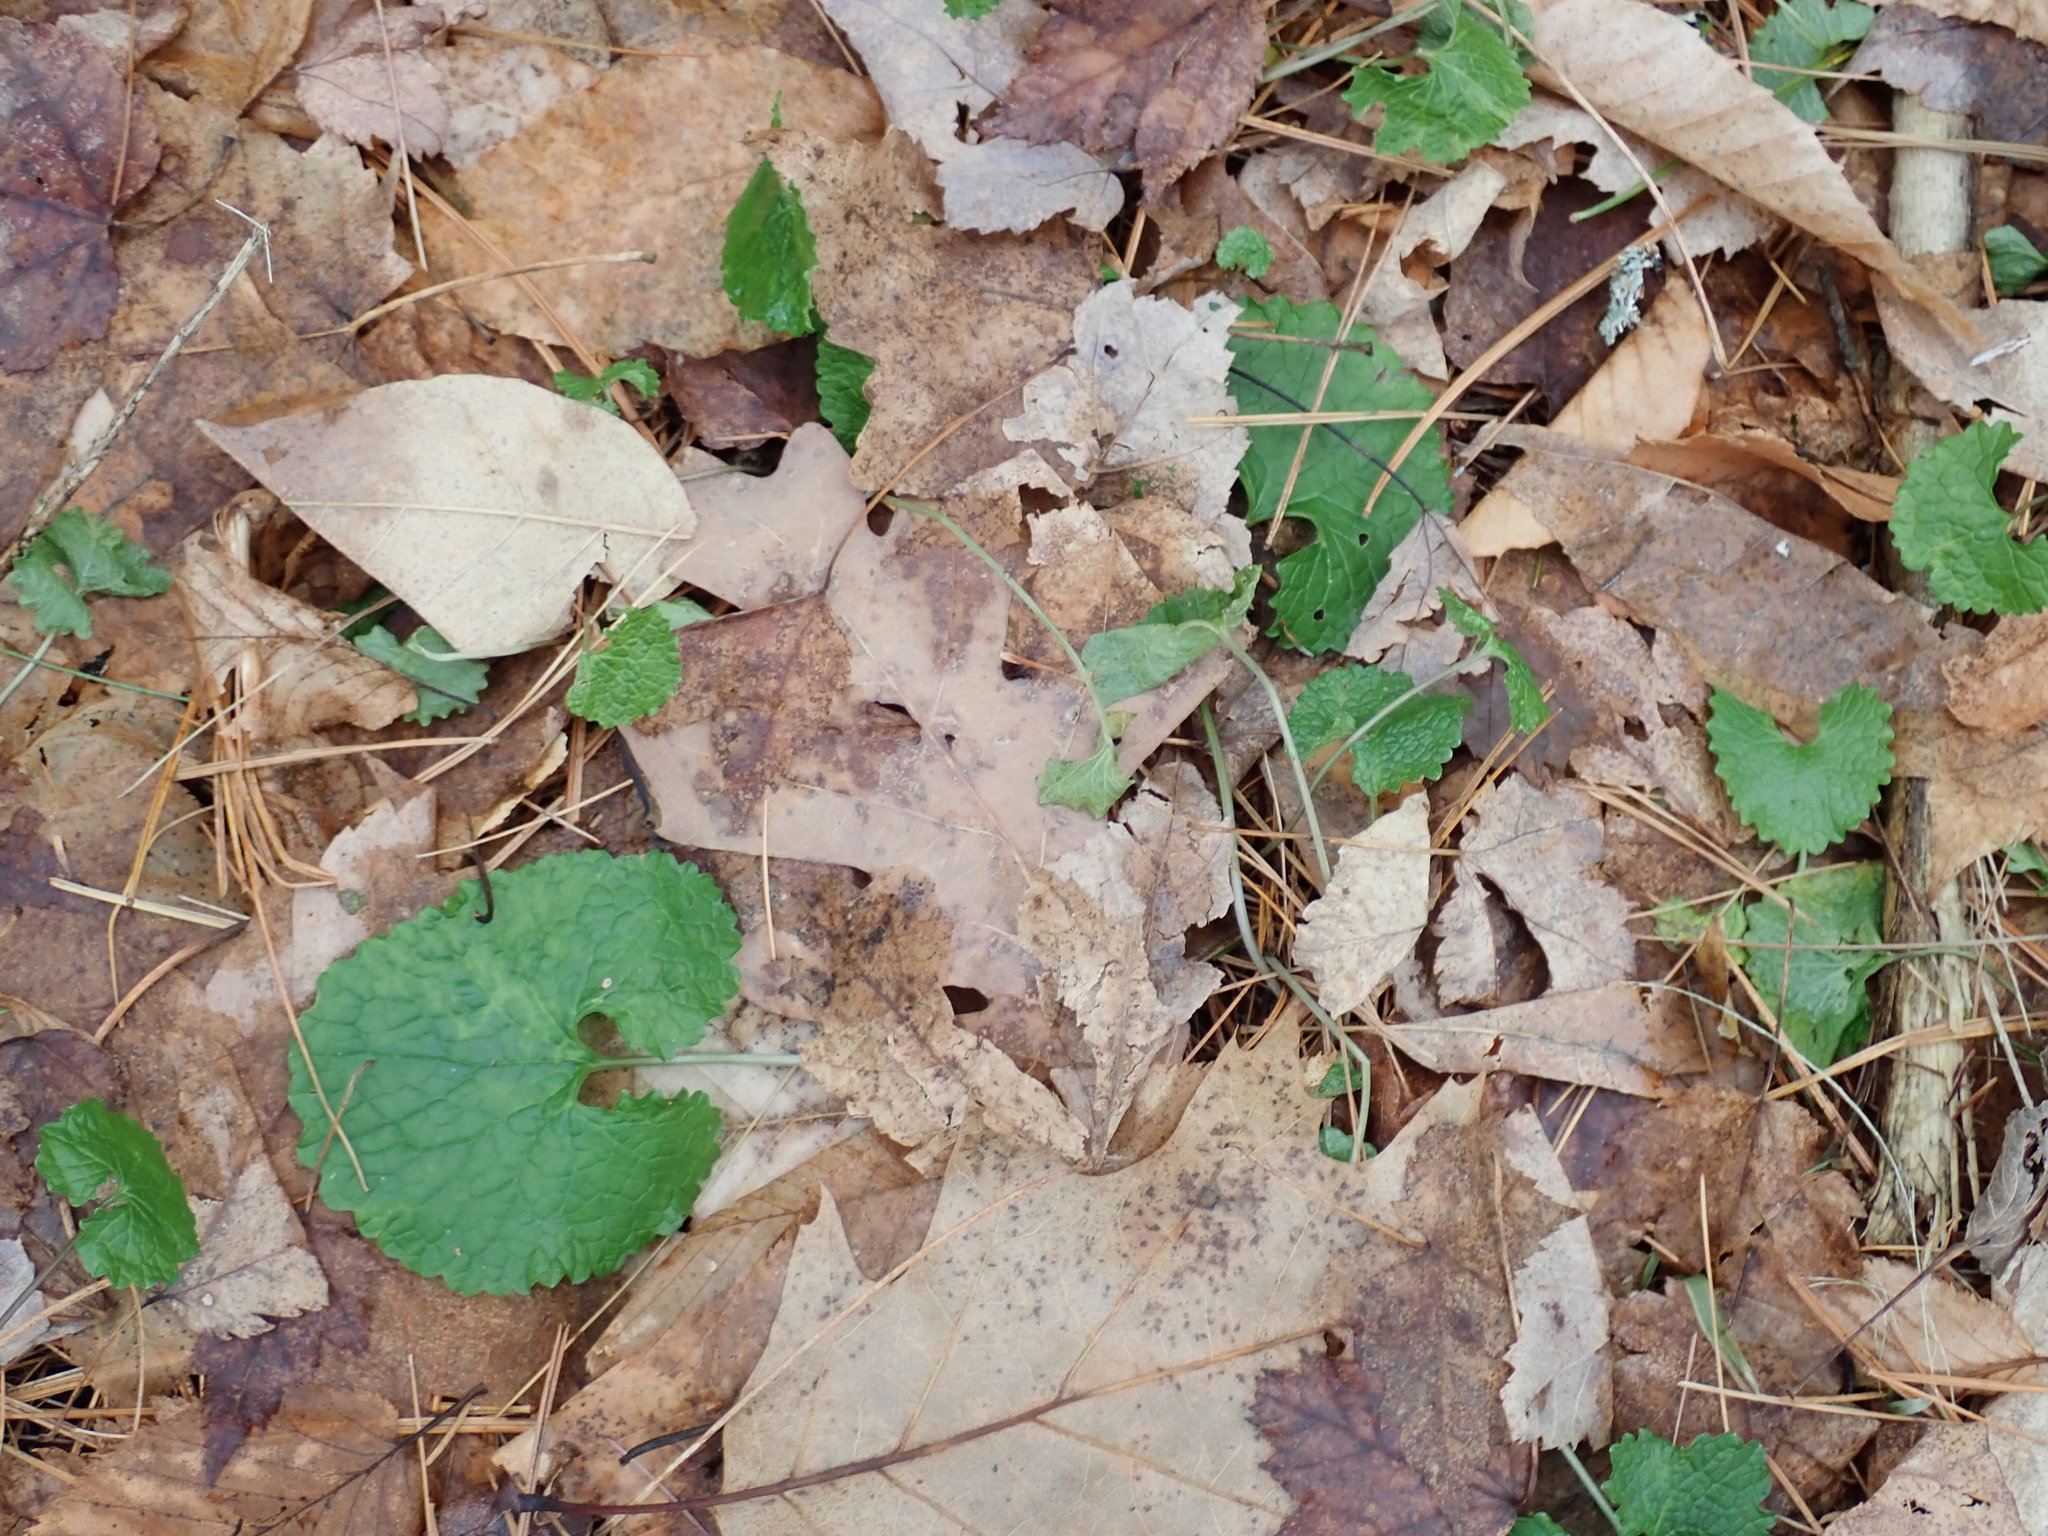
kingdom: Plantae
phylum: Tracheophyta
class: Magnoliopsida
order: Brassicales
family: Brassicaceae
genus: Alliaria
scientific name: Alliaria petiolata
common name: Garlic mustard
